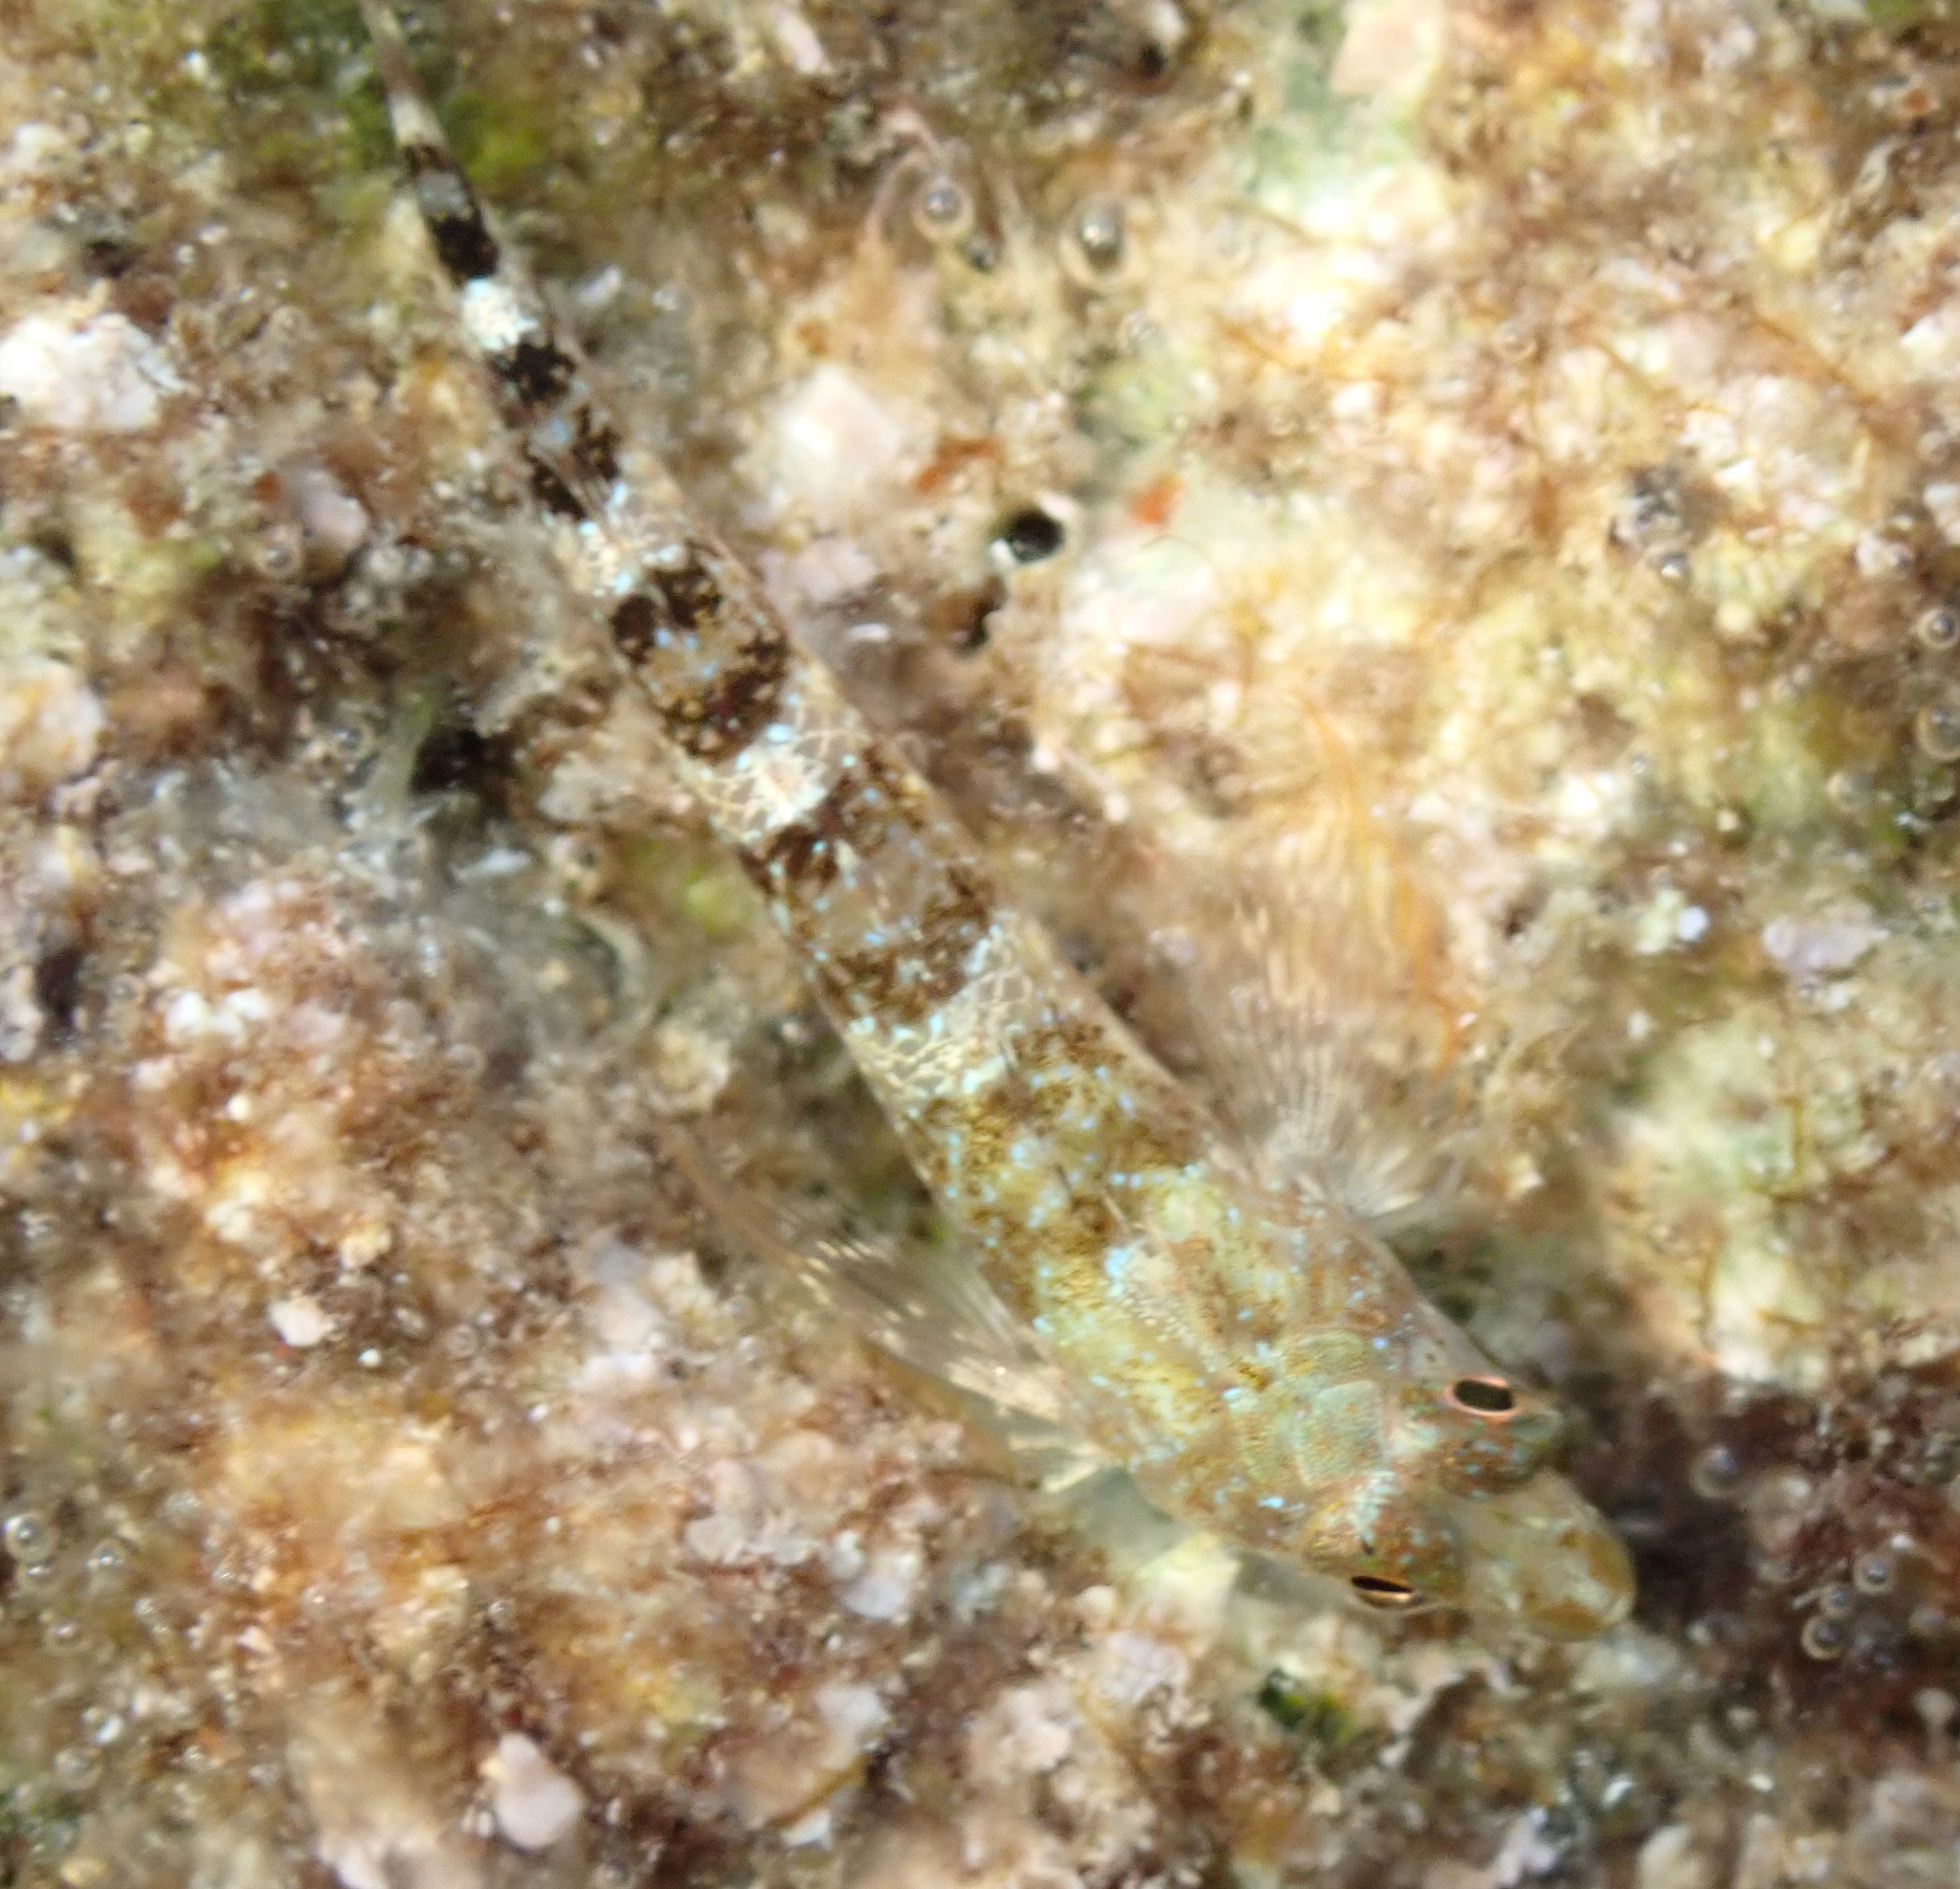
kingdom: Animalia
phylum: Chordata
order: Perciformes
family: Tripterygiidae
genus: Tripterygion
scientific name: Tripterygion tripteronotum
